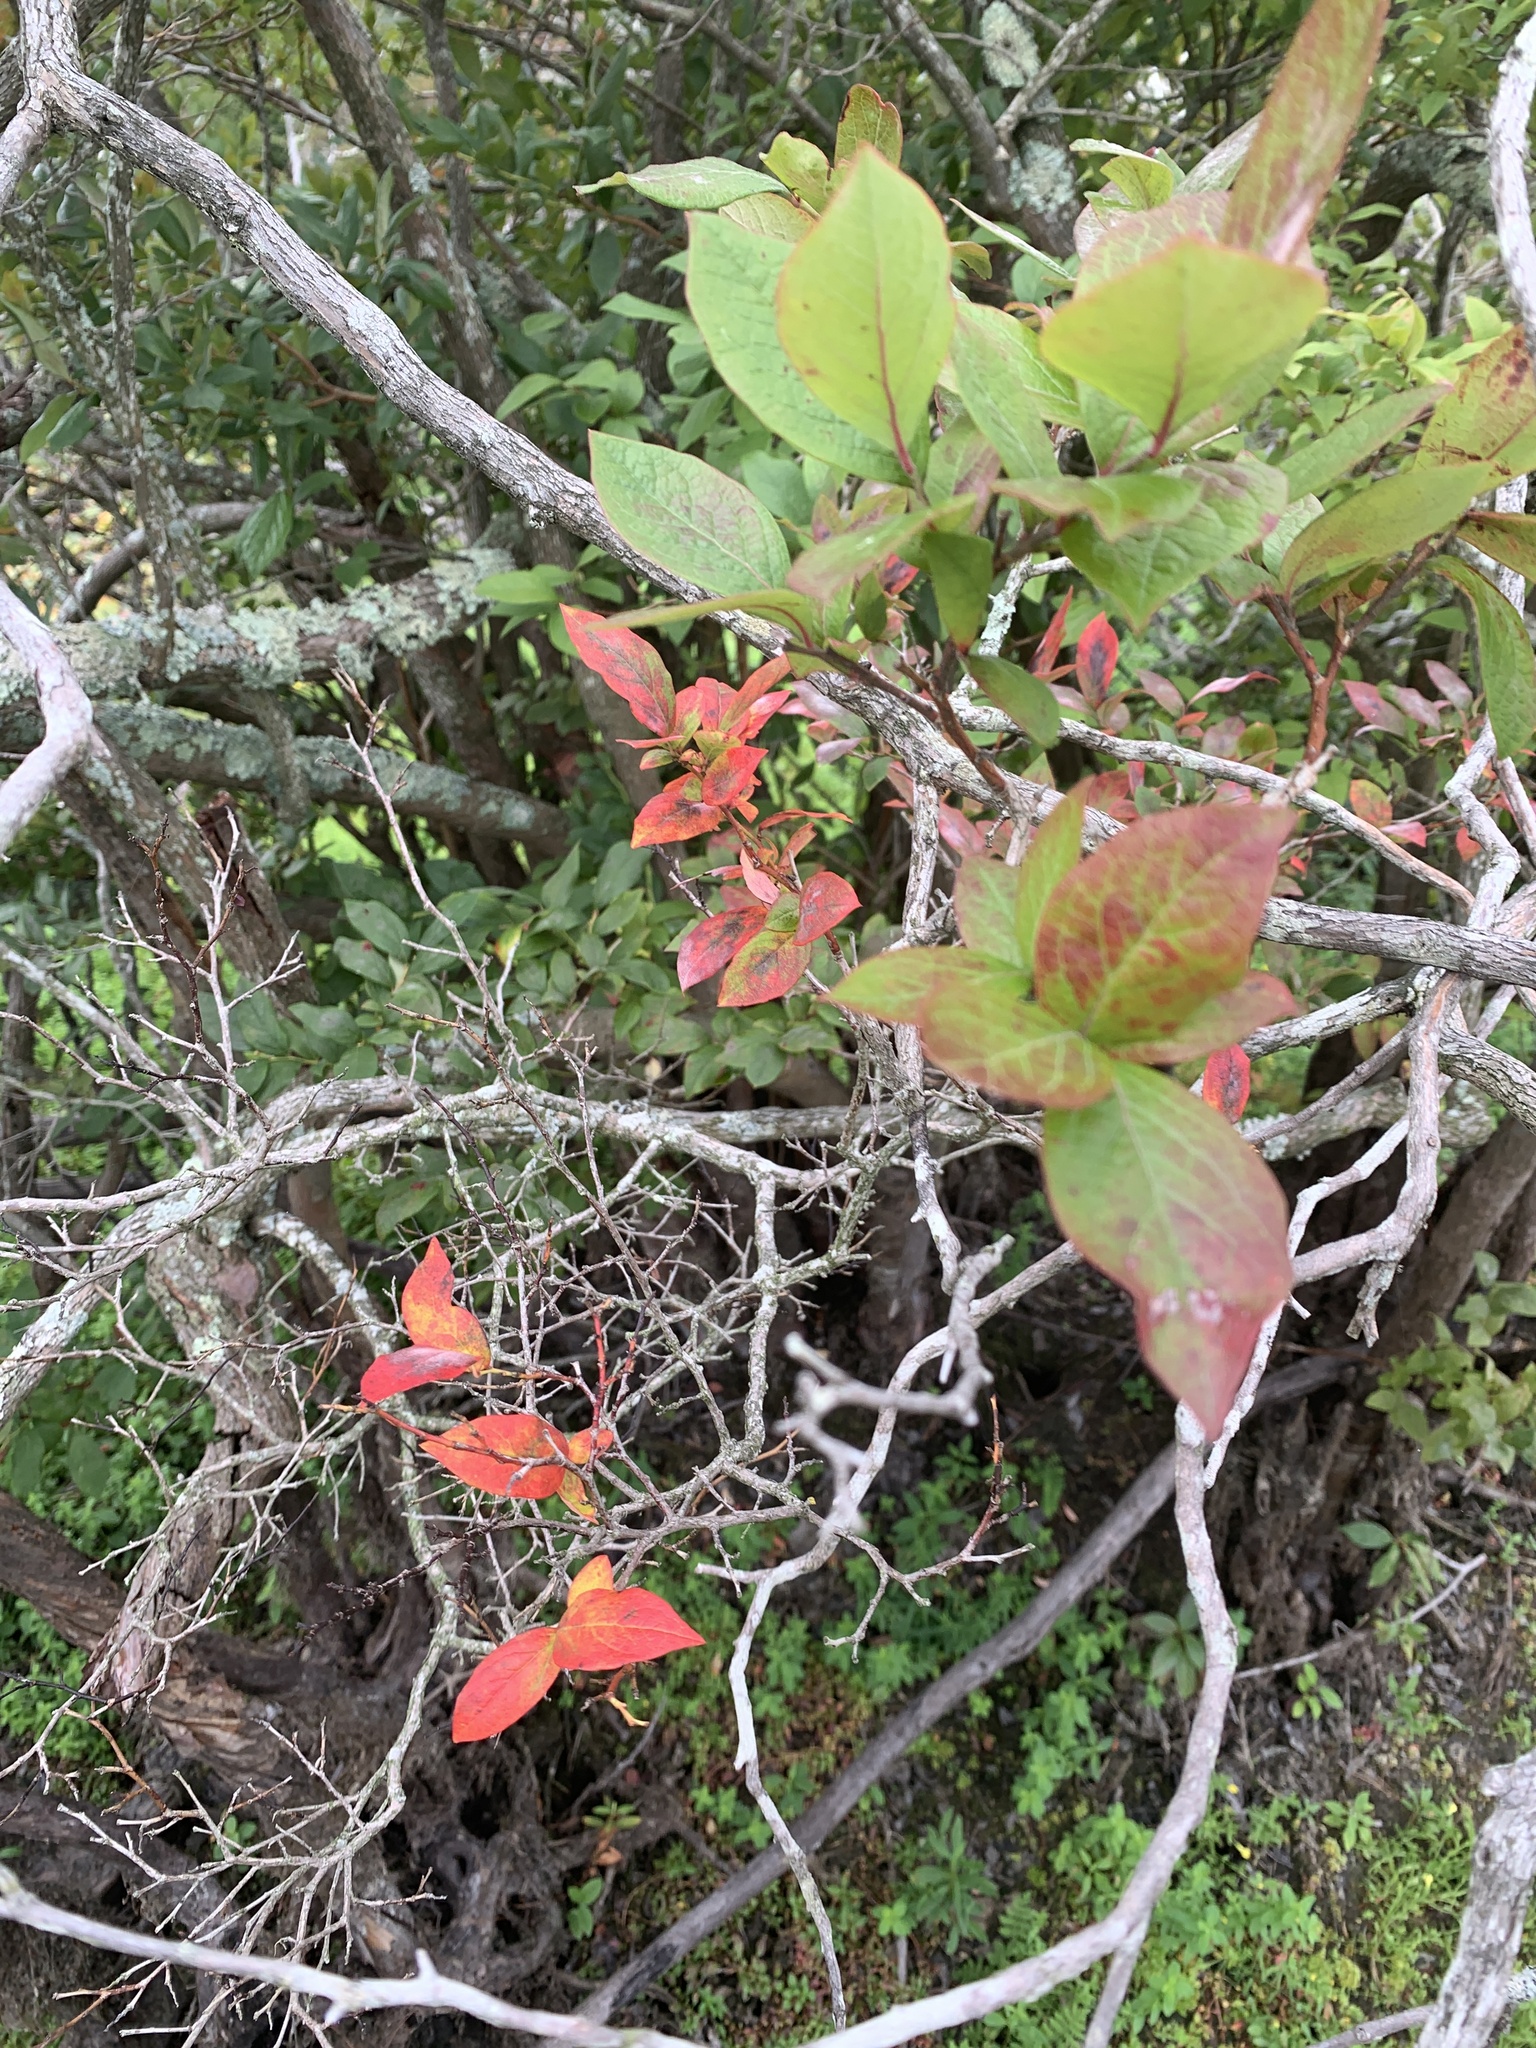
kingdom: Plantae
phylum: Tracheophyta
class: Magnoliopsida
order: Ericales
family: Ericaceae
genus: Vaccinium
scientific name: Vaccinium corymbosum
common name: Blueberry
